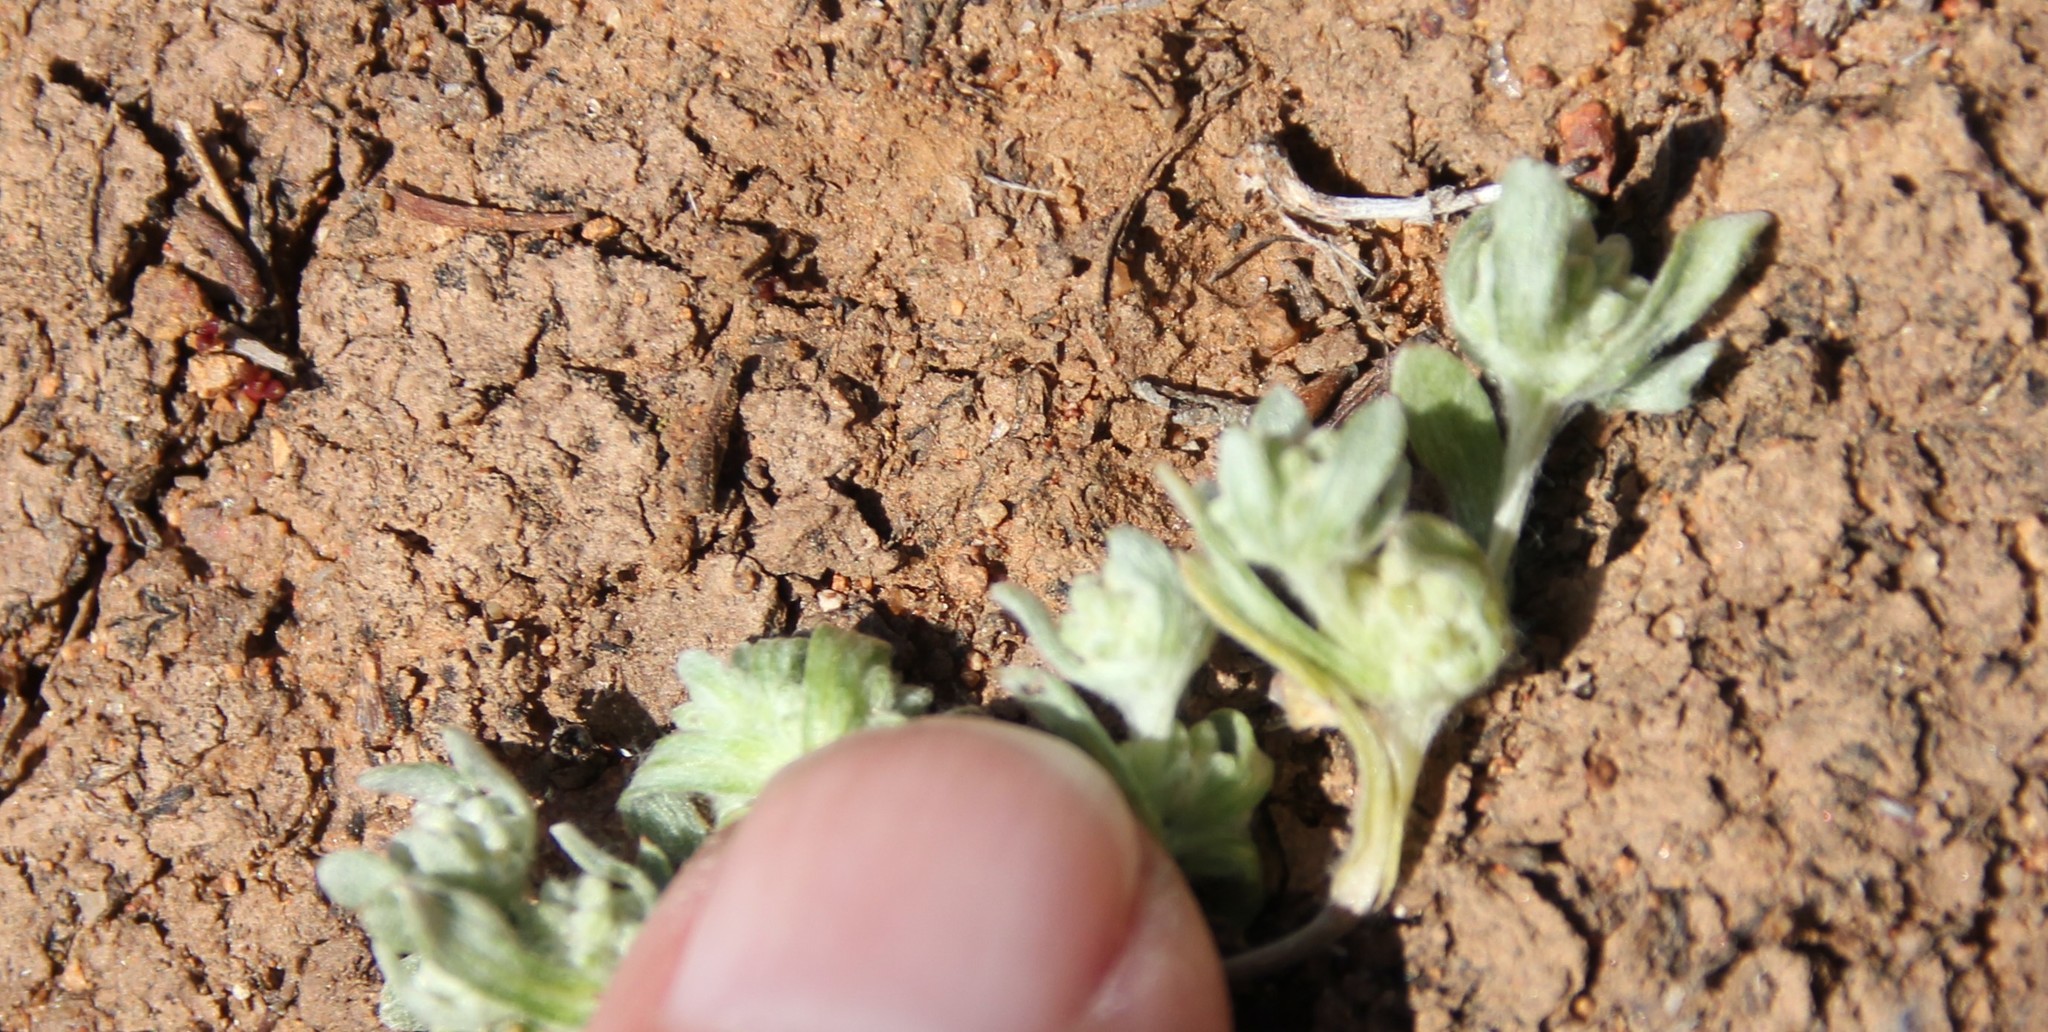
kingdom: Plantae
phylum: Tracheophyta
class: Magnoliopsida
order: Asterales
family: Asteraceae
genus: Psilocarphus
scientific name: Psilocarphus tenellus
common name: Slender woolly-marbles
